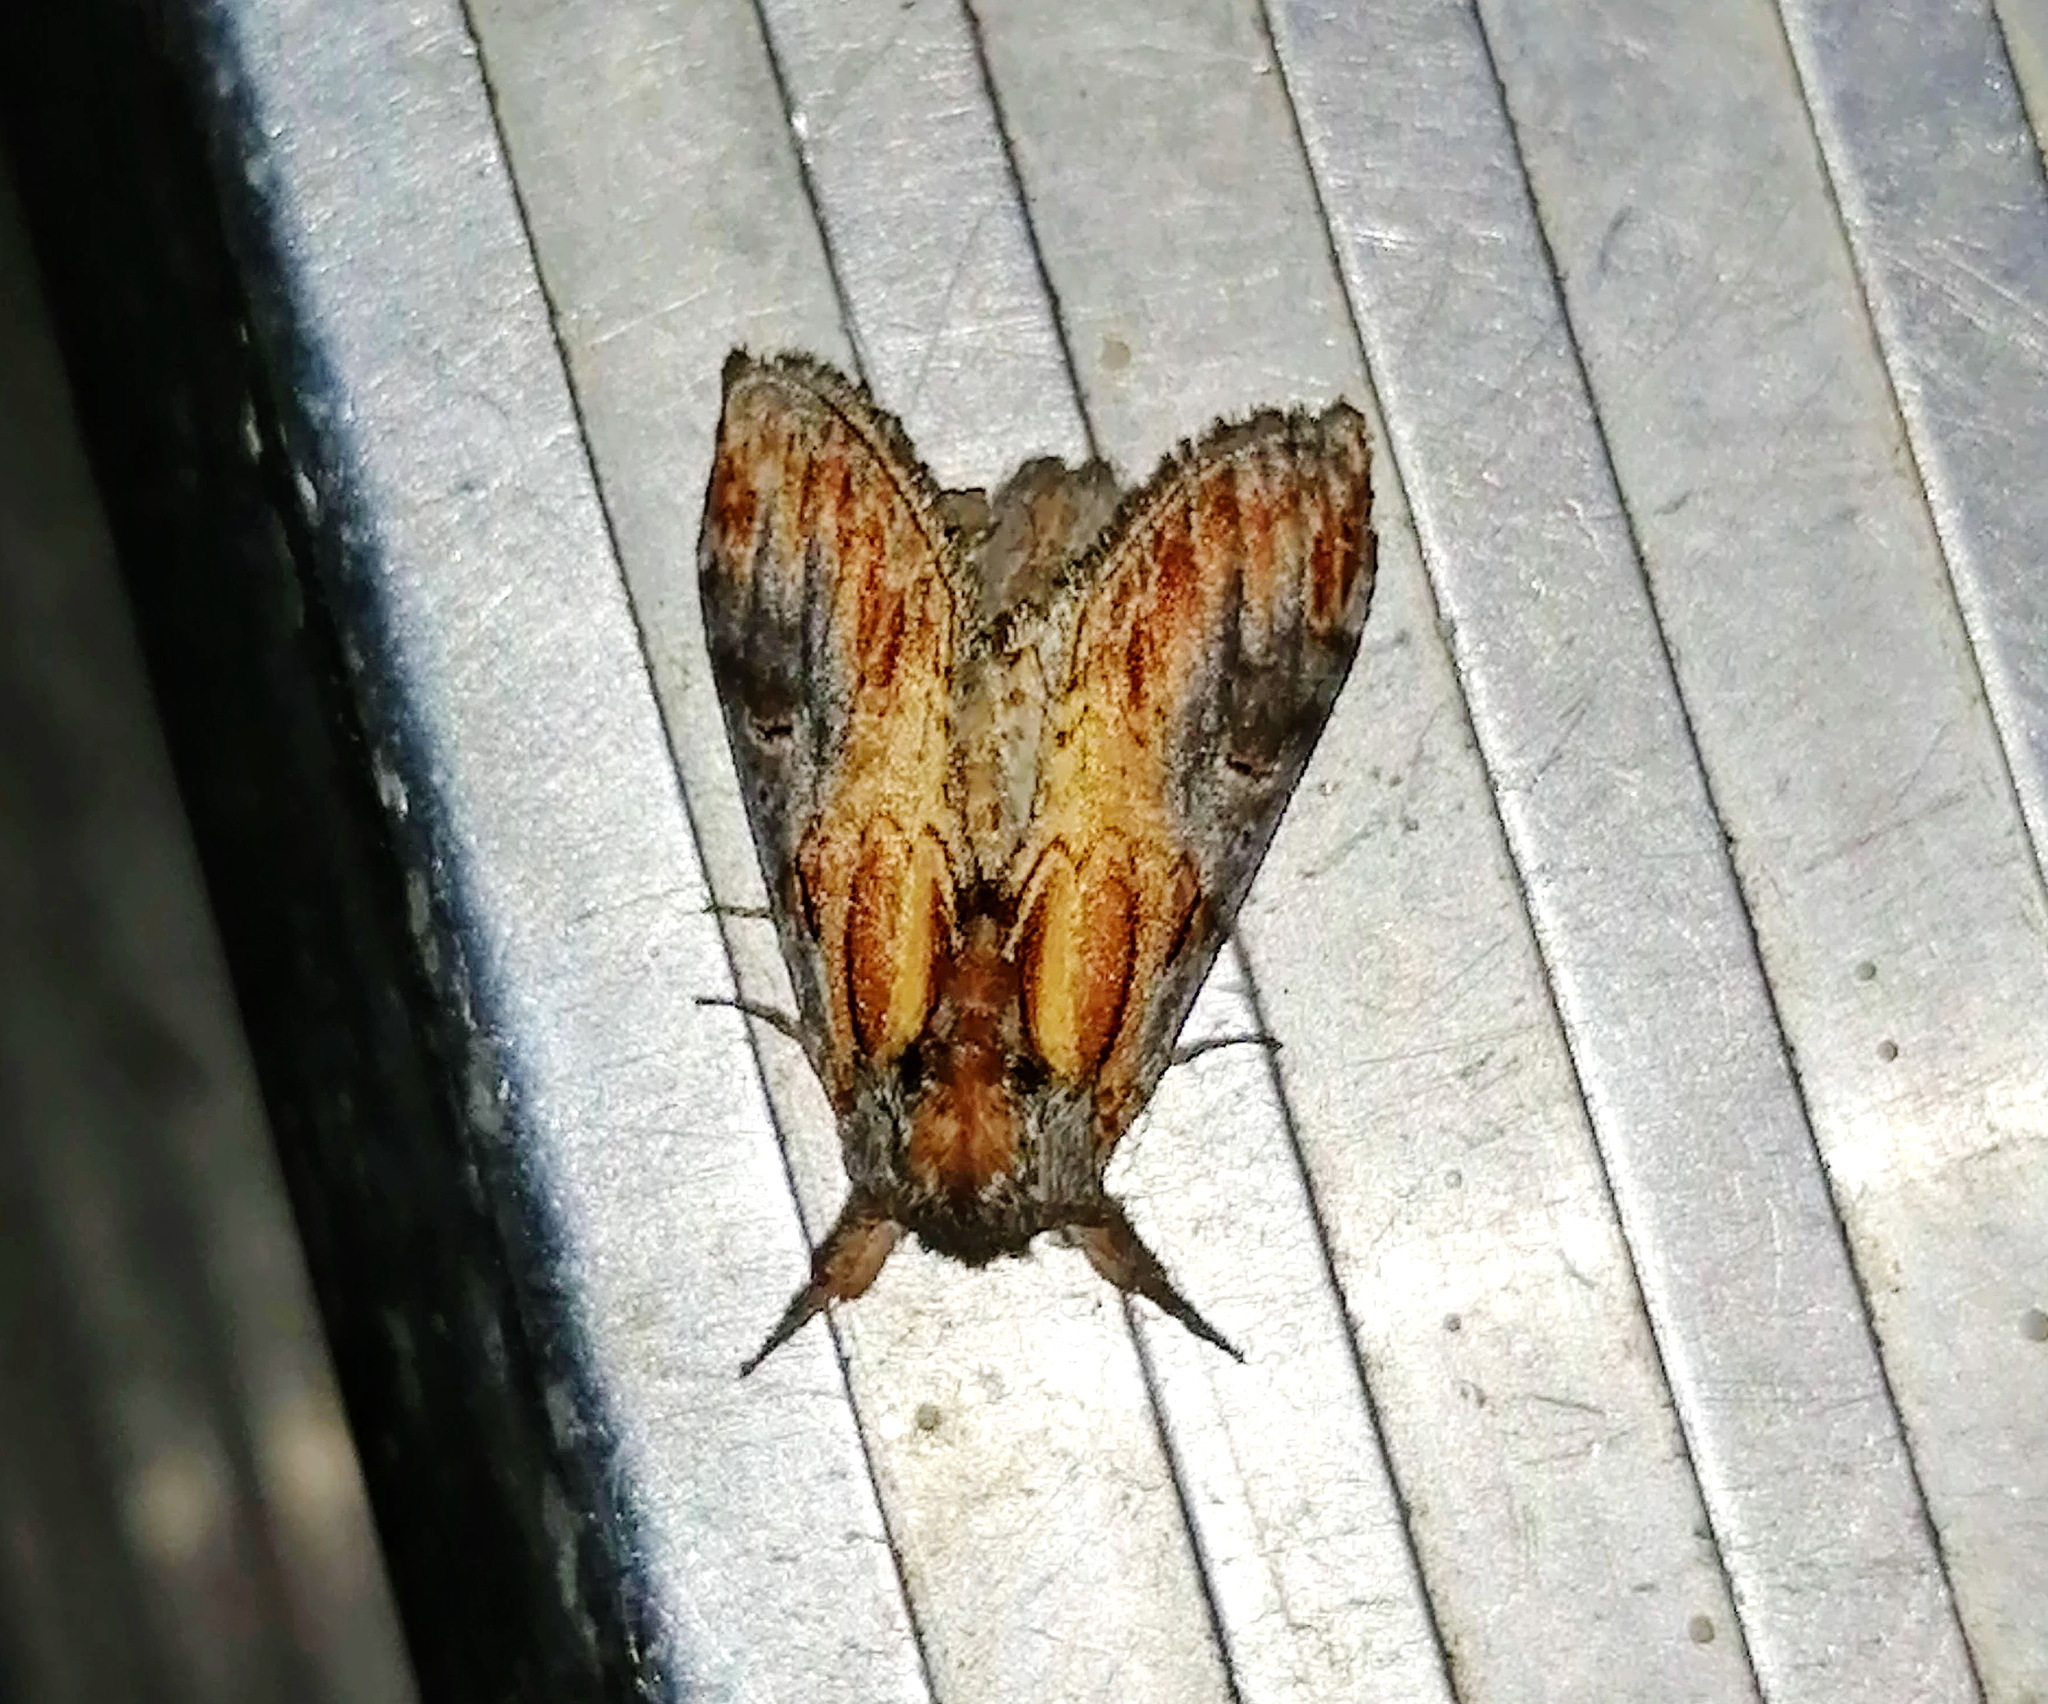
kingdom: Animalia
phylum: Arthropoda
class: Insecta
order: Lepidoptera
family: Notodontidae
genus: Notodonta
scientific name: Notodonta scitipennis
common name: Finned-willow prominent moth
